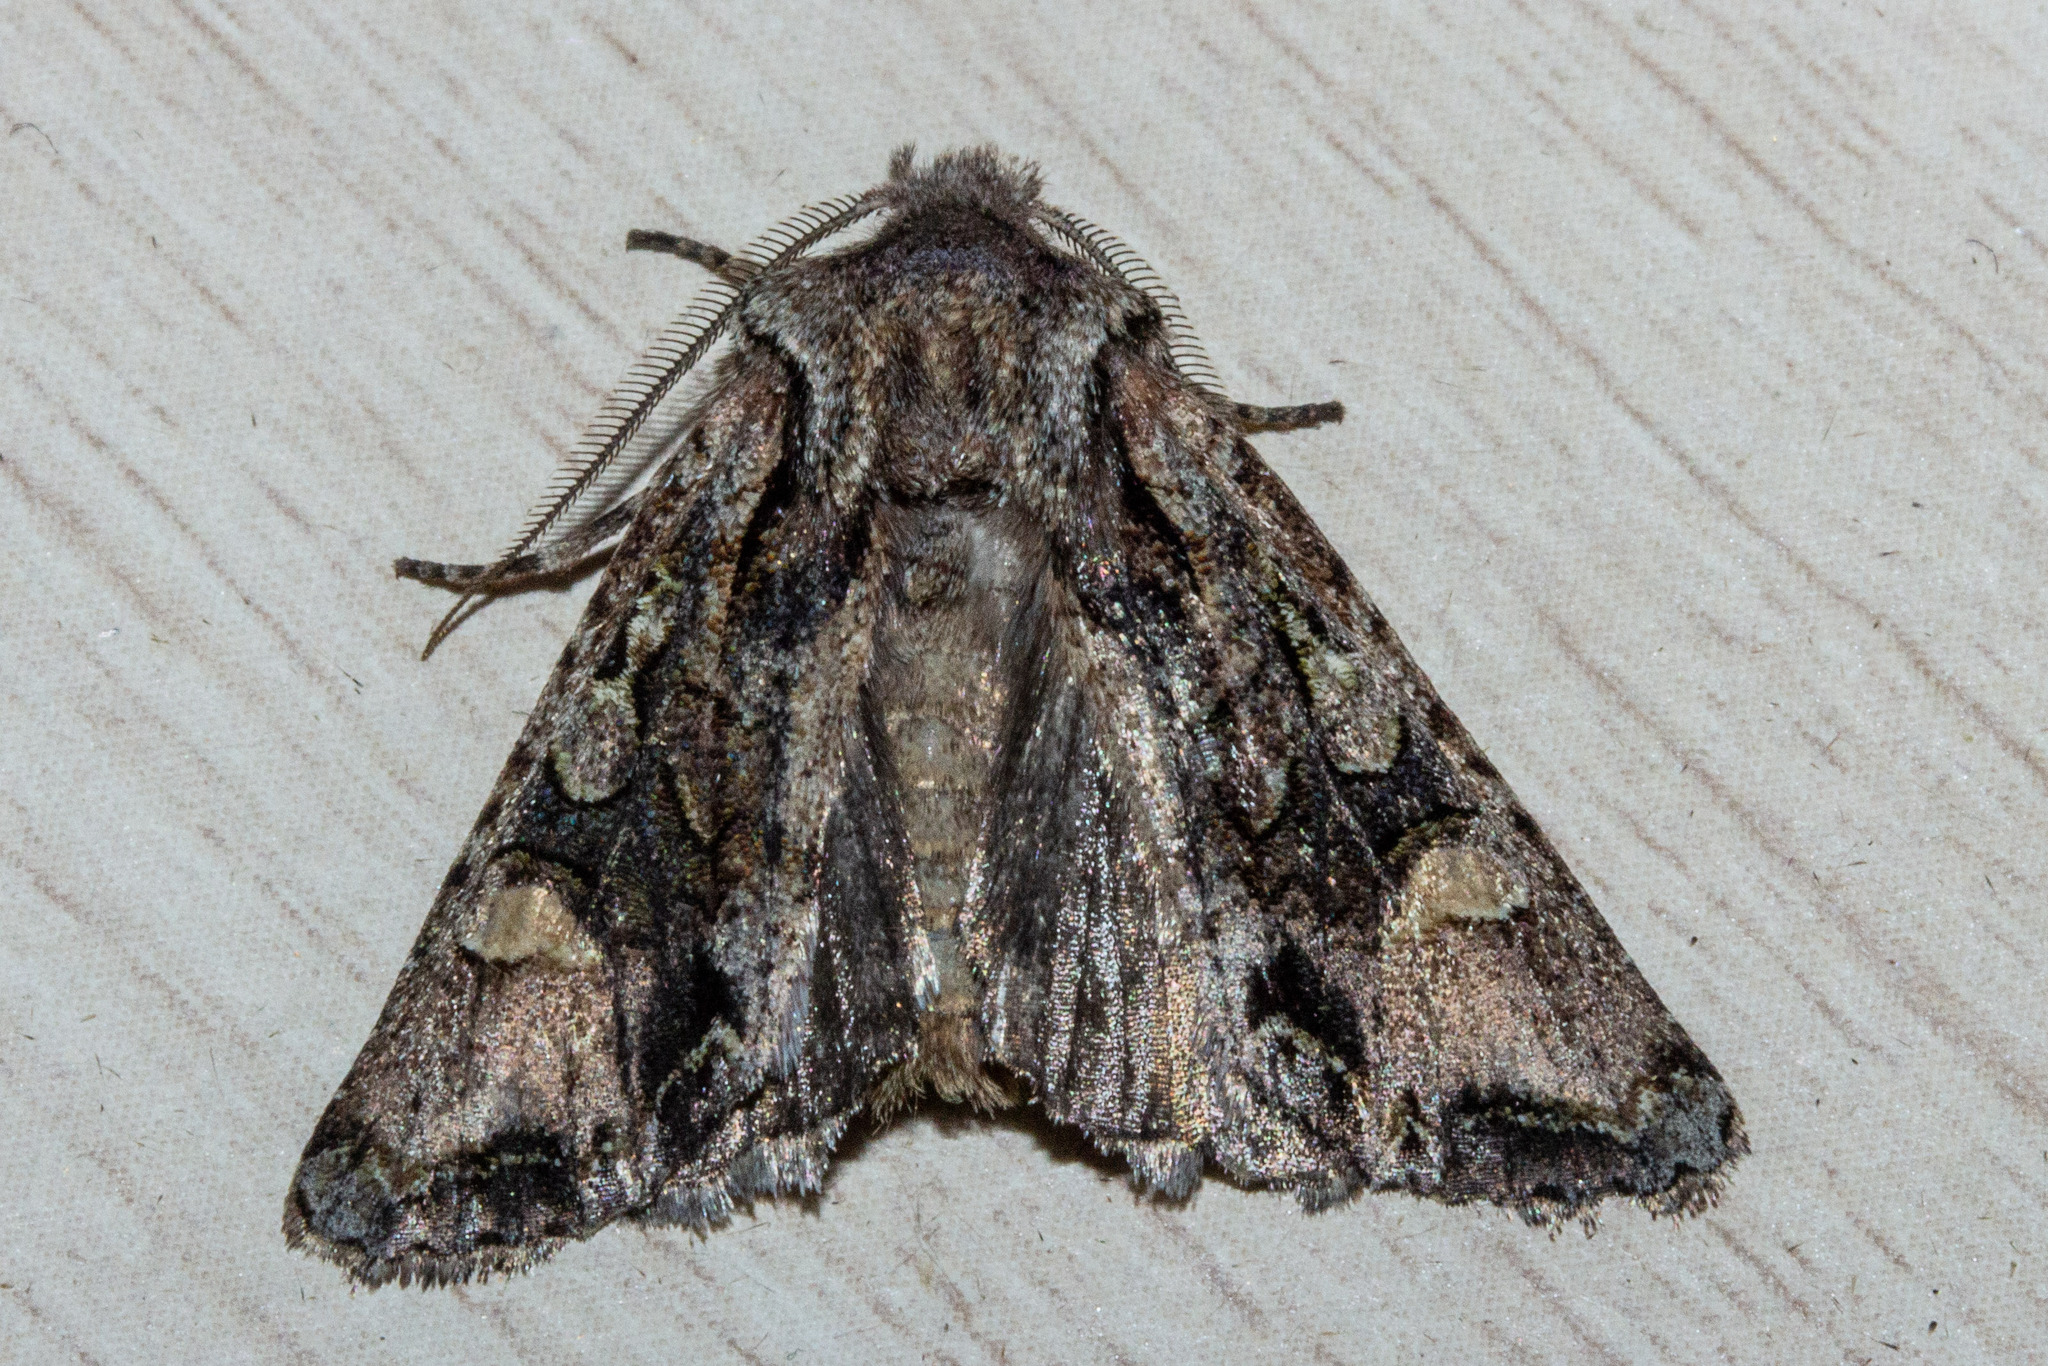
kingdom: Animalia
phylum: Arthropoda
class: Insecta
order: Lepidoptera
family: Noctuidae
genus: Ichneutica
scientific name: Ichneutica skelloni
